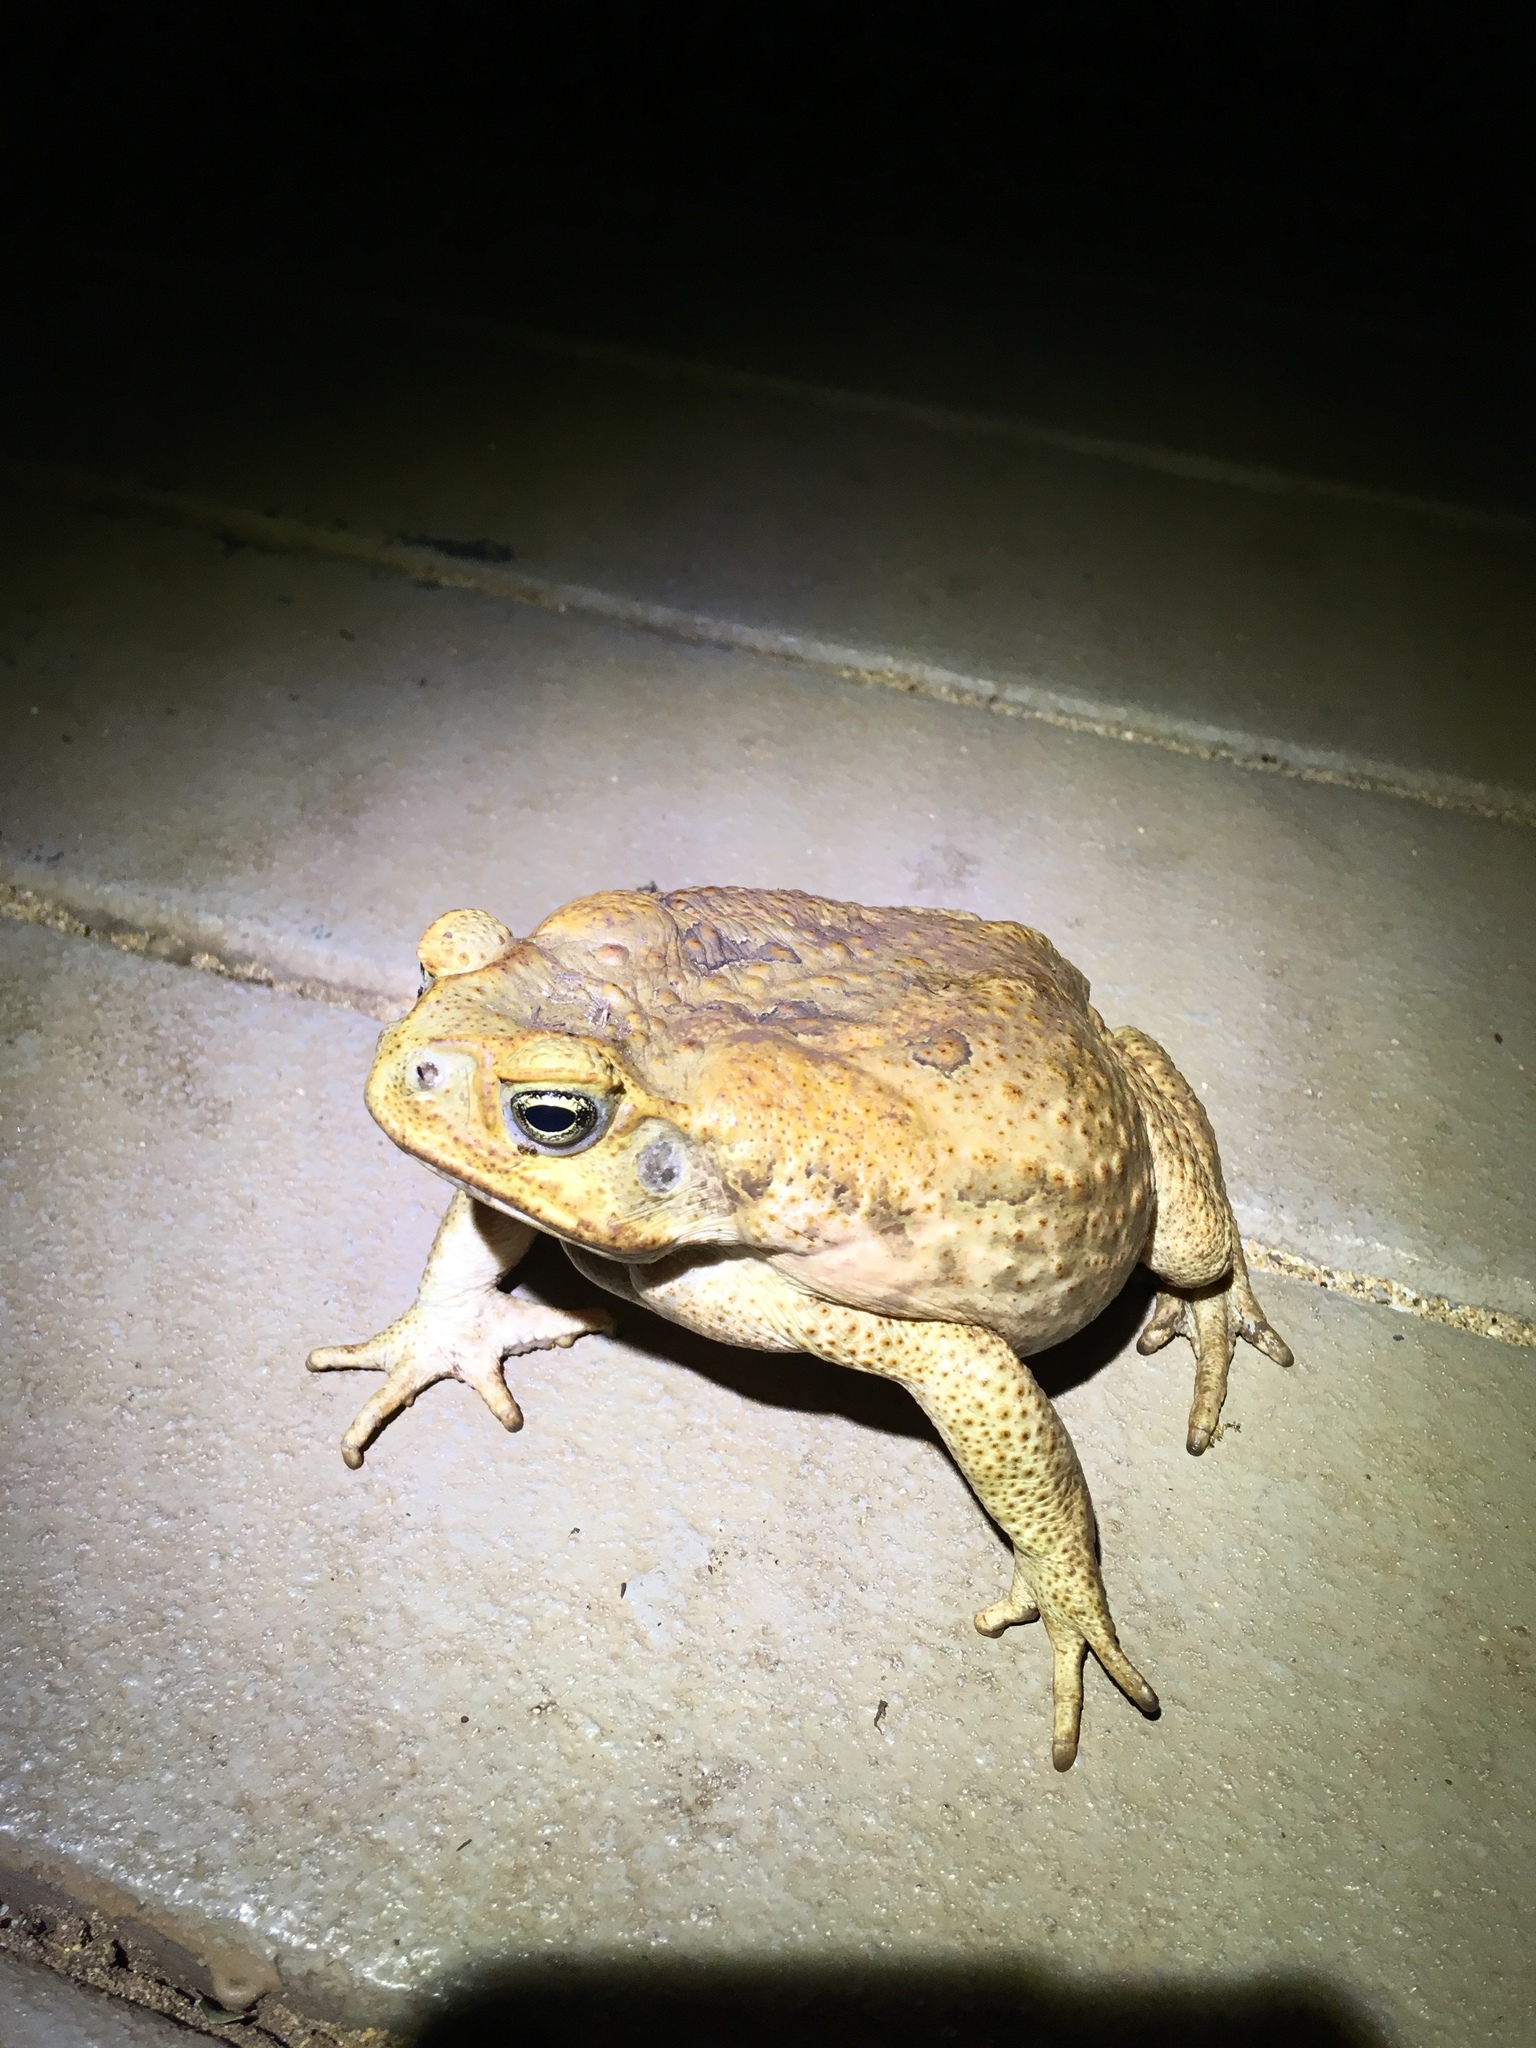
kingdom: Animalia
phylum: Chordata
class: Amphibia
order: Anura
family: Bufonidae
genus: Rhinella
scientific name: Rhinella marina
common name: Cane toad
